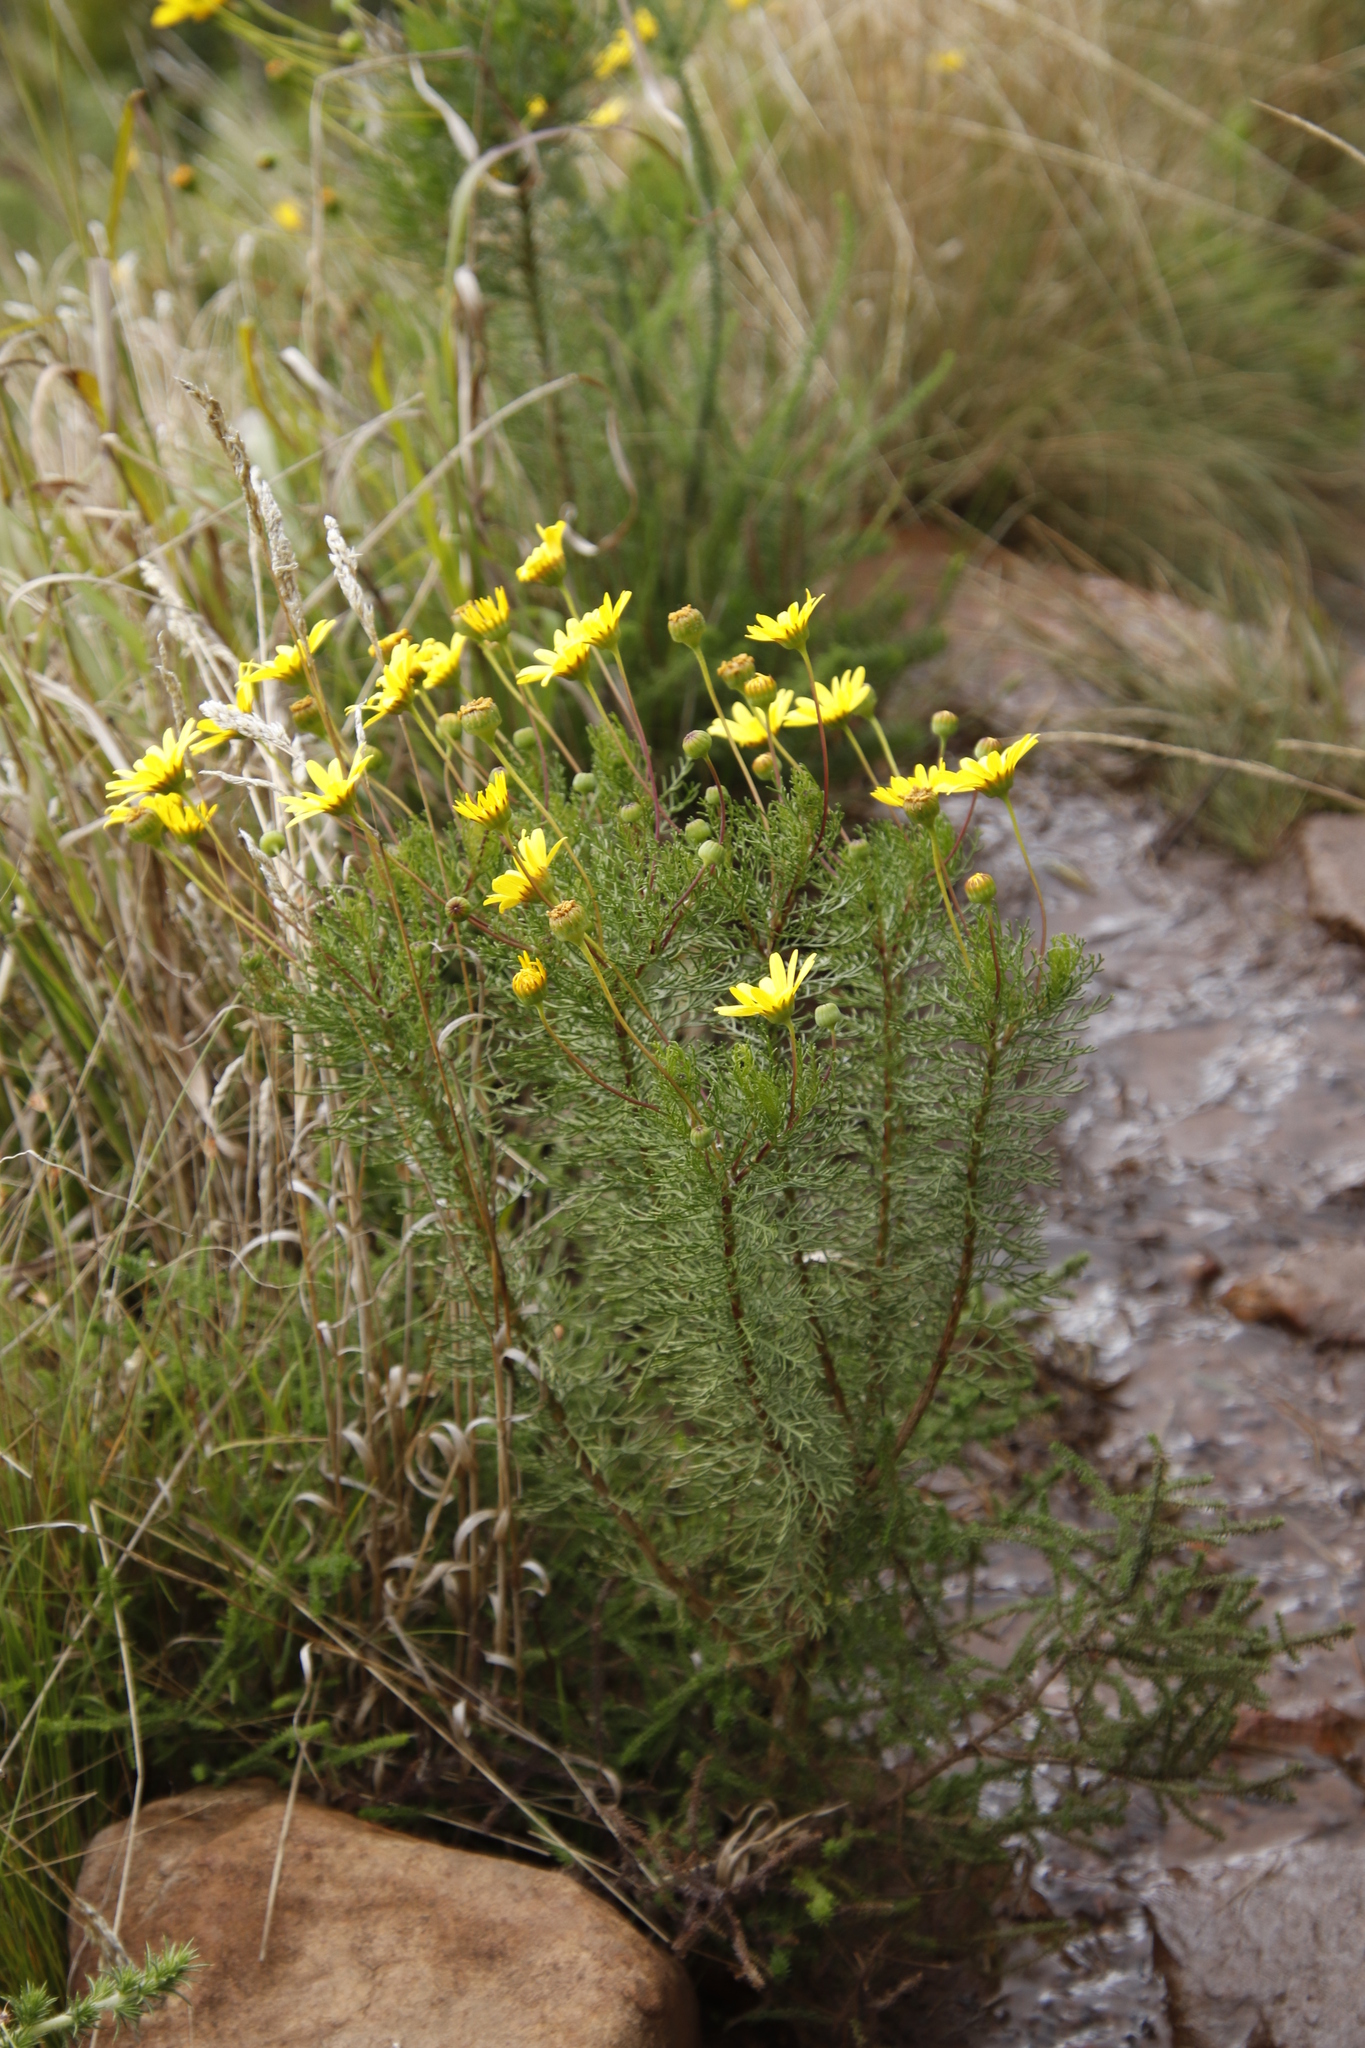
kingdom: Plantae
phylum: Tracheophyta
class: Magnoliopsida
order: Asterales
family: Asteraceae
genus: Euryops
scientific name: Euryops abrotanifolius
